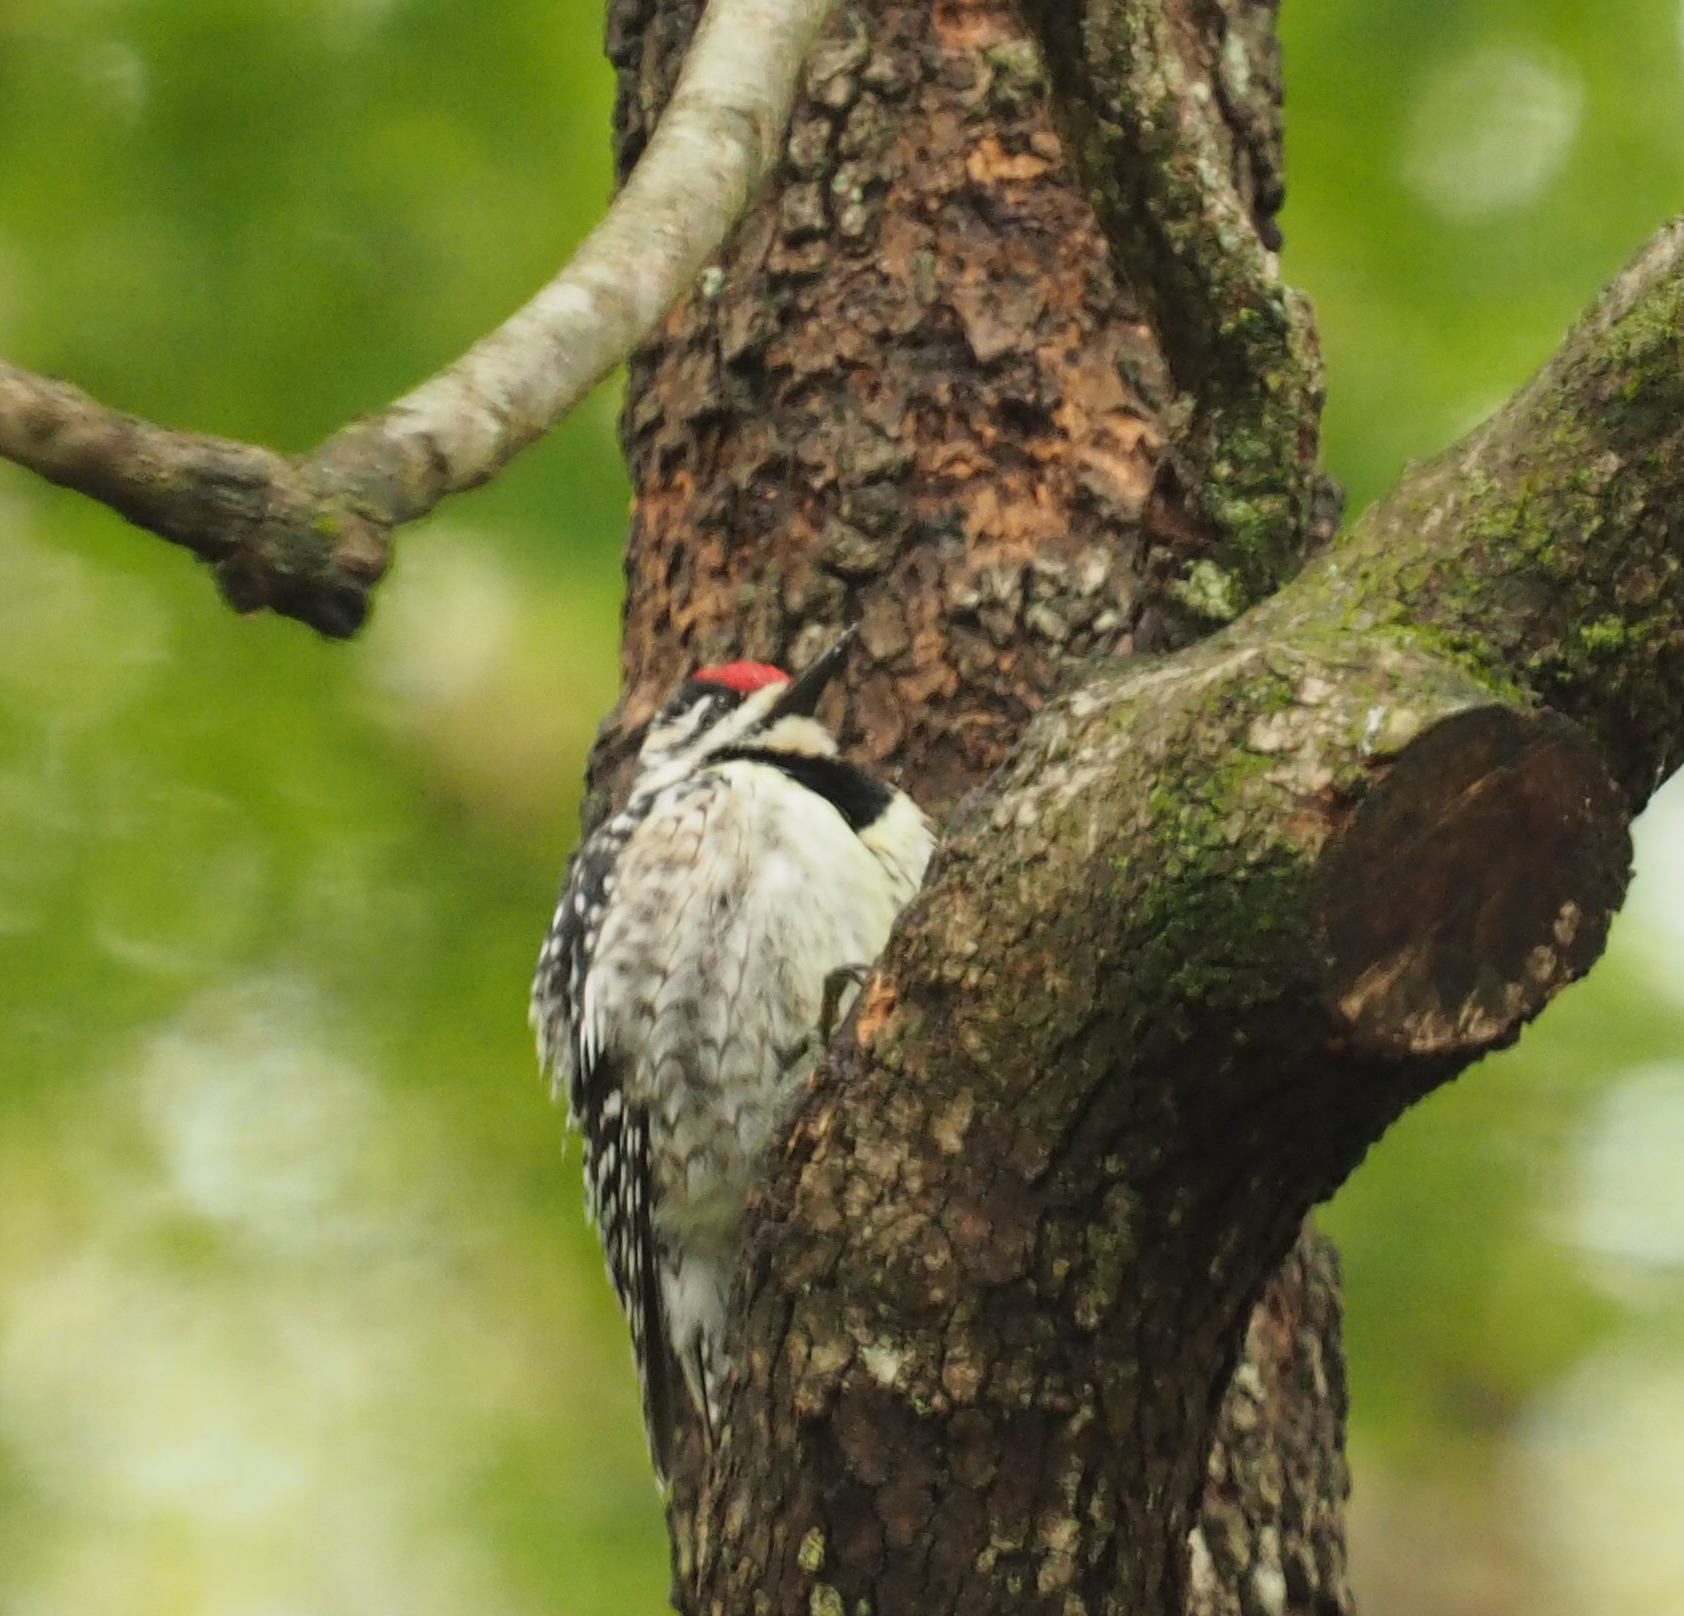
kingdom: Animalia
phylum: Chordata
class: Aves
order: Piciformes
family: Picidae
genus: Sphyrapicus
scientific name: Sphyrapicus varius
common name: Yellow-bellied sapsucker
